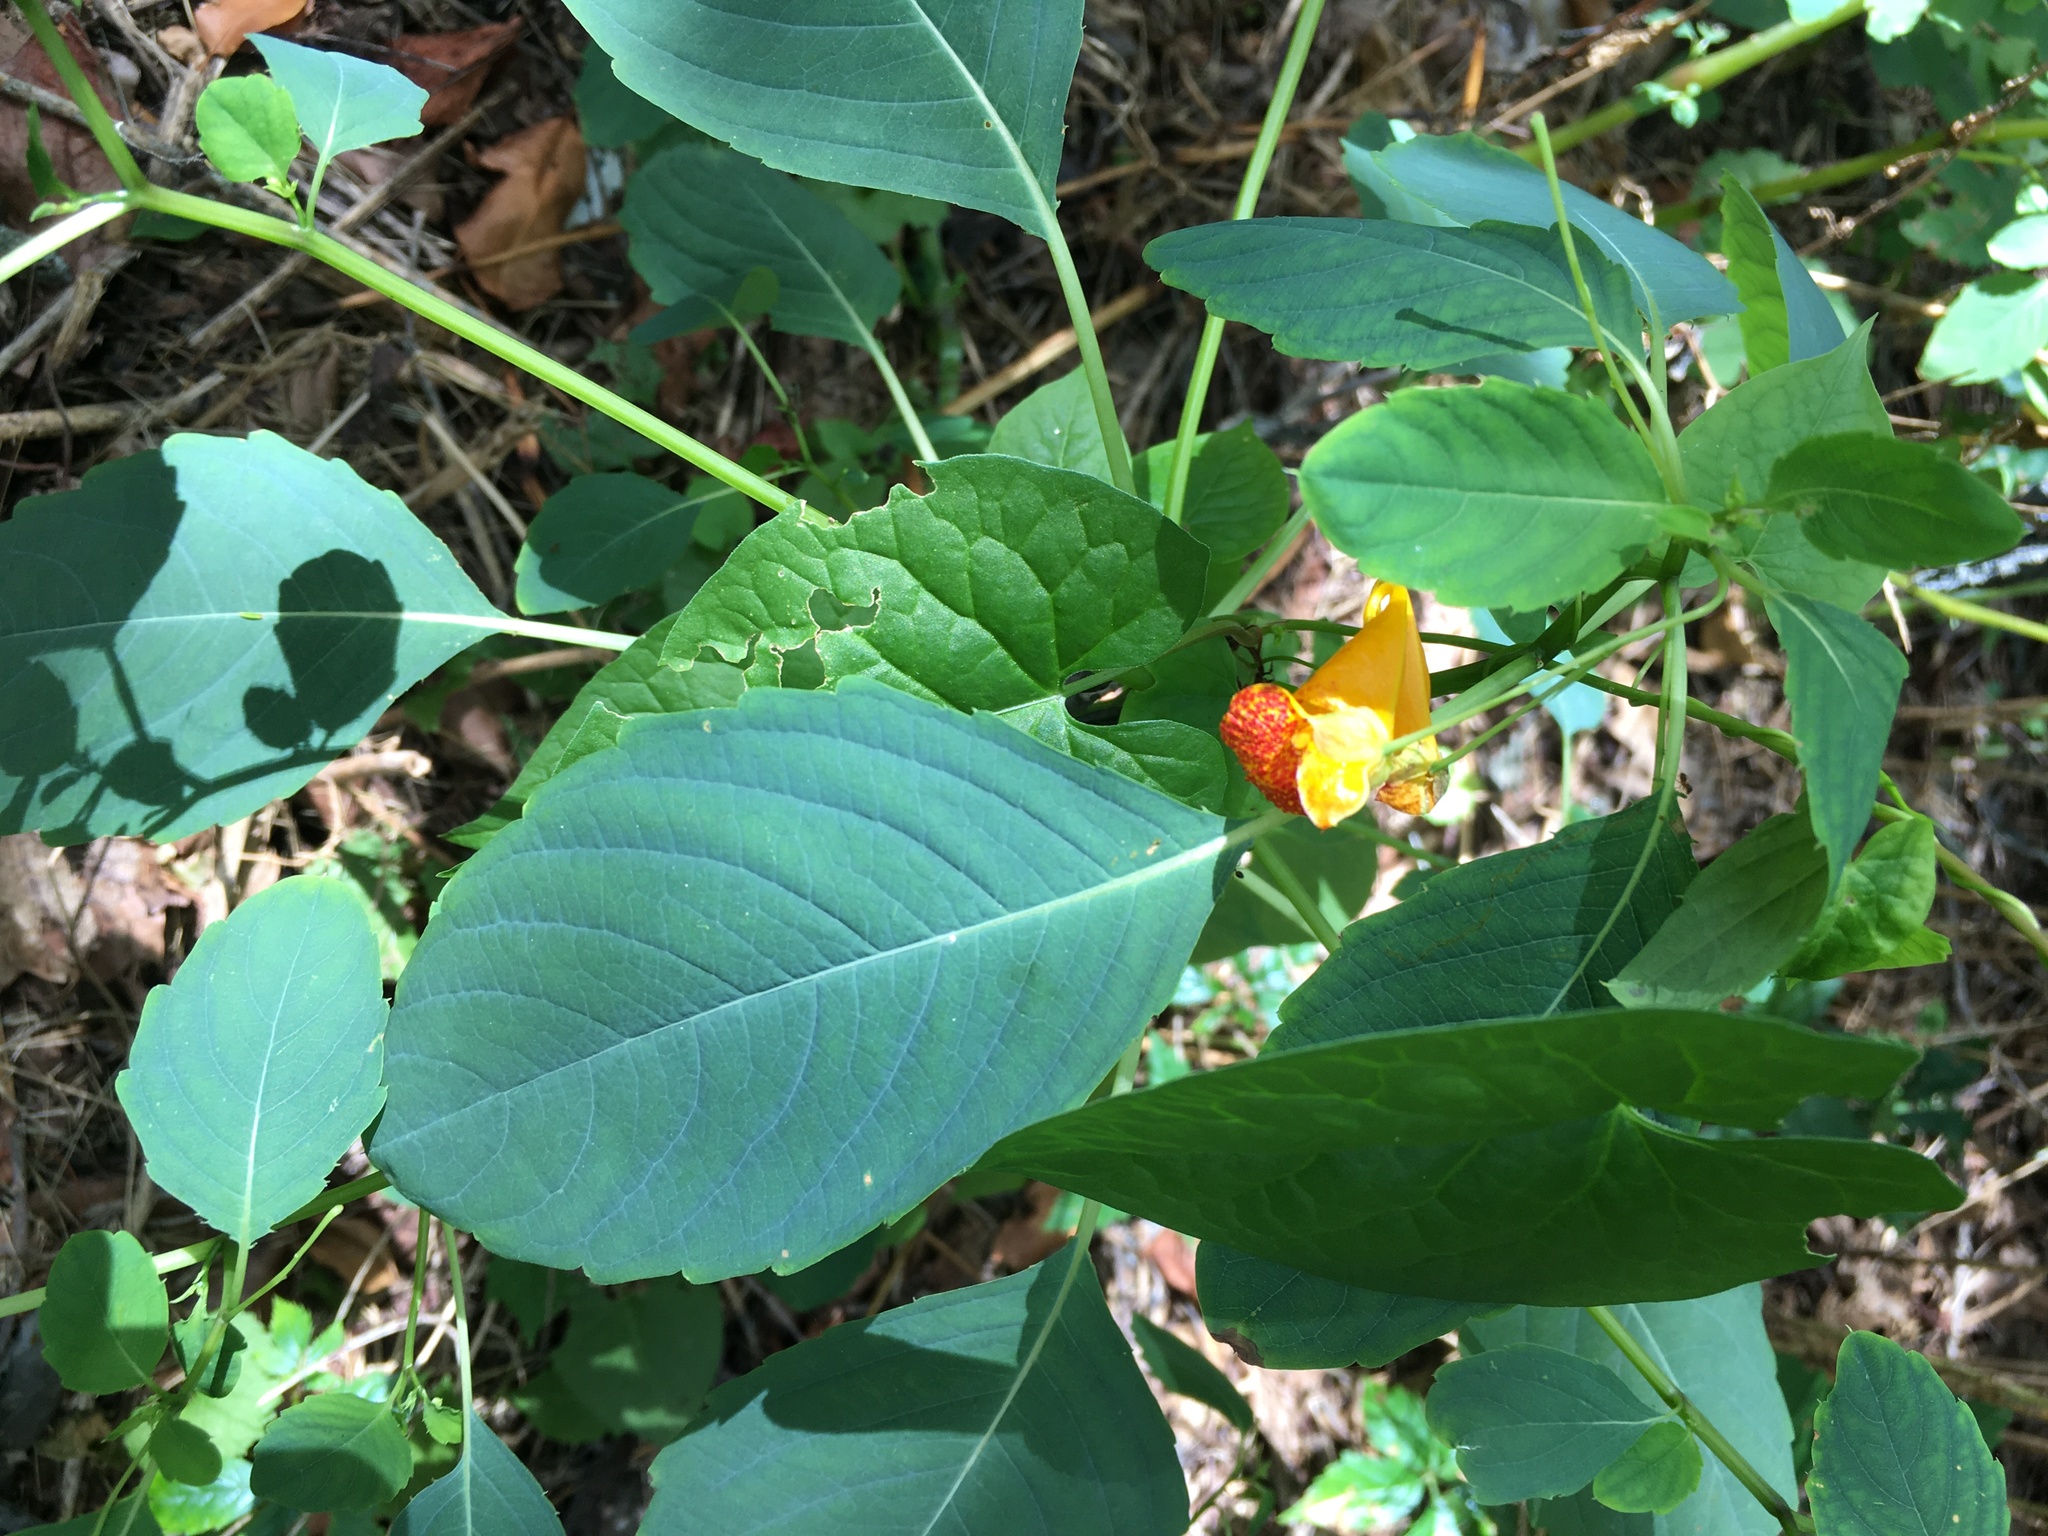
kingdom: Plantae
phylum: Tracheophyta
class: Magnoliopsida
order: Ericales
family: Balsaminaceae
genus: Impatiens
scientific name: Impatiens capensis
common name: Orange balsam
